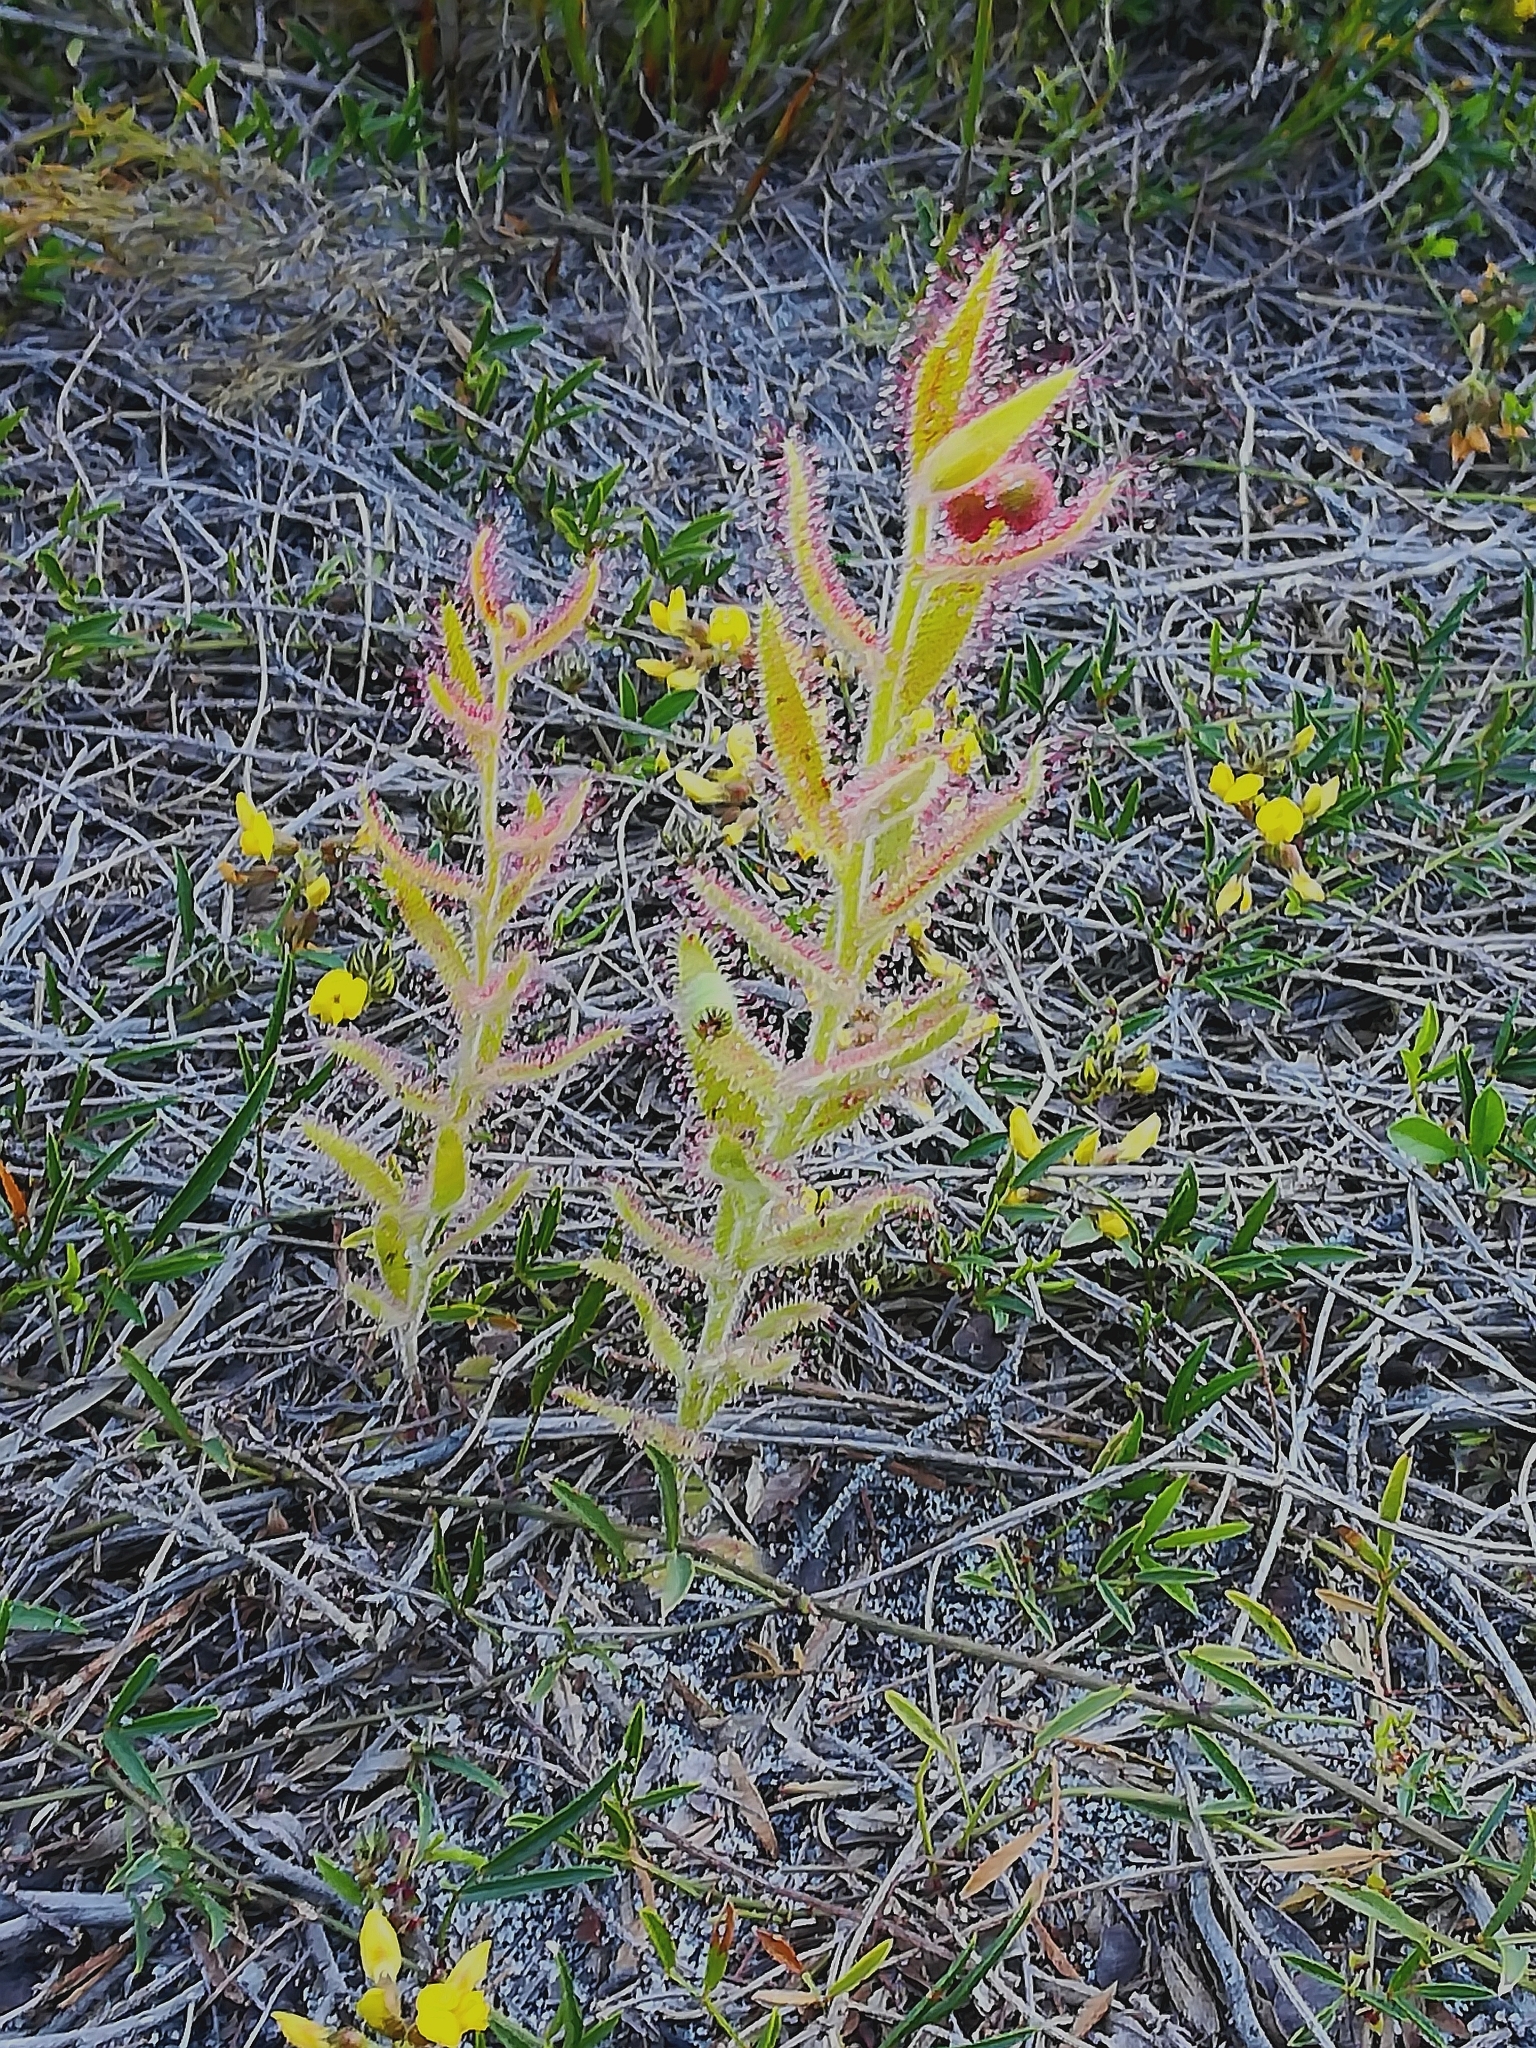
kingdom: Plantae
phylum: Tracheophyta
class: Magnoliopsida
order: Caryophyllales
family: Droseraceae
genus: Drosera
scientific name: Drosera cistiflora
